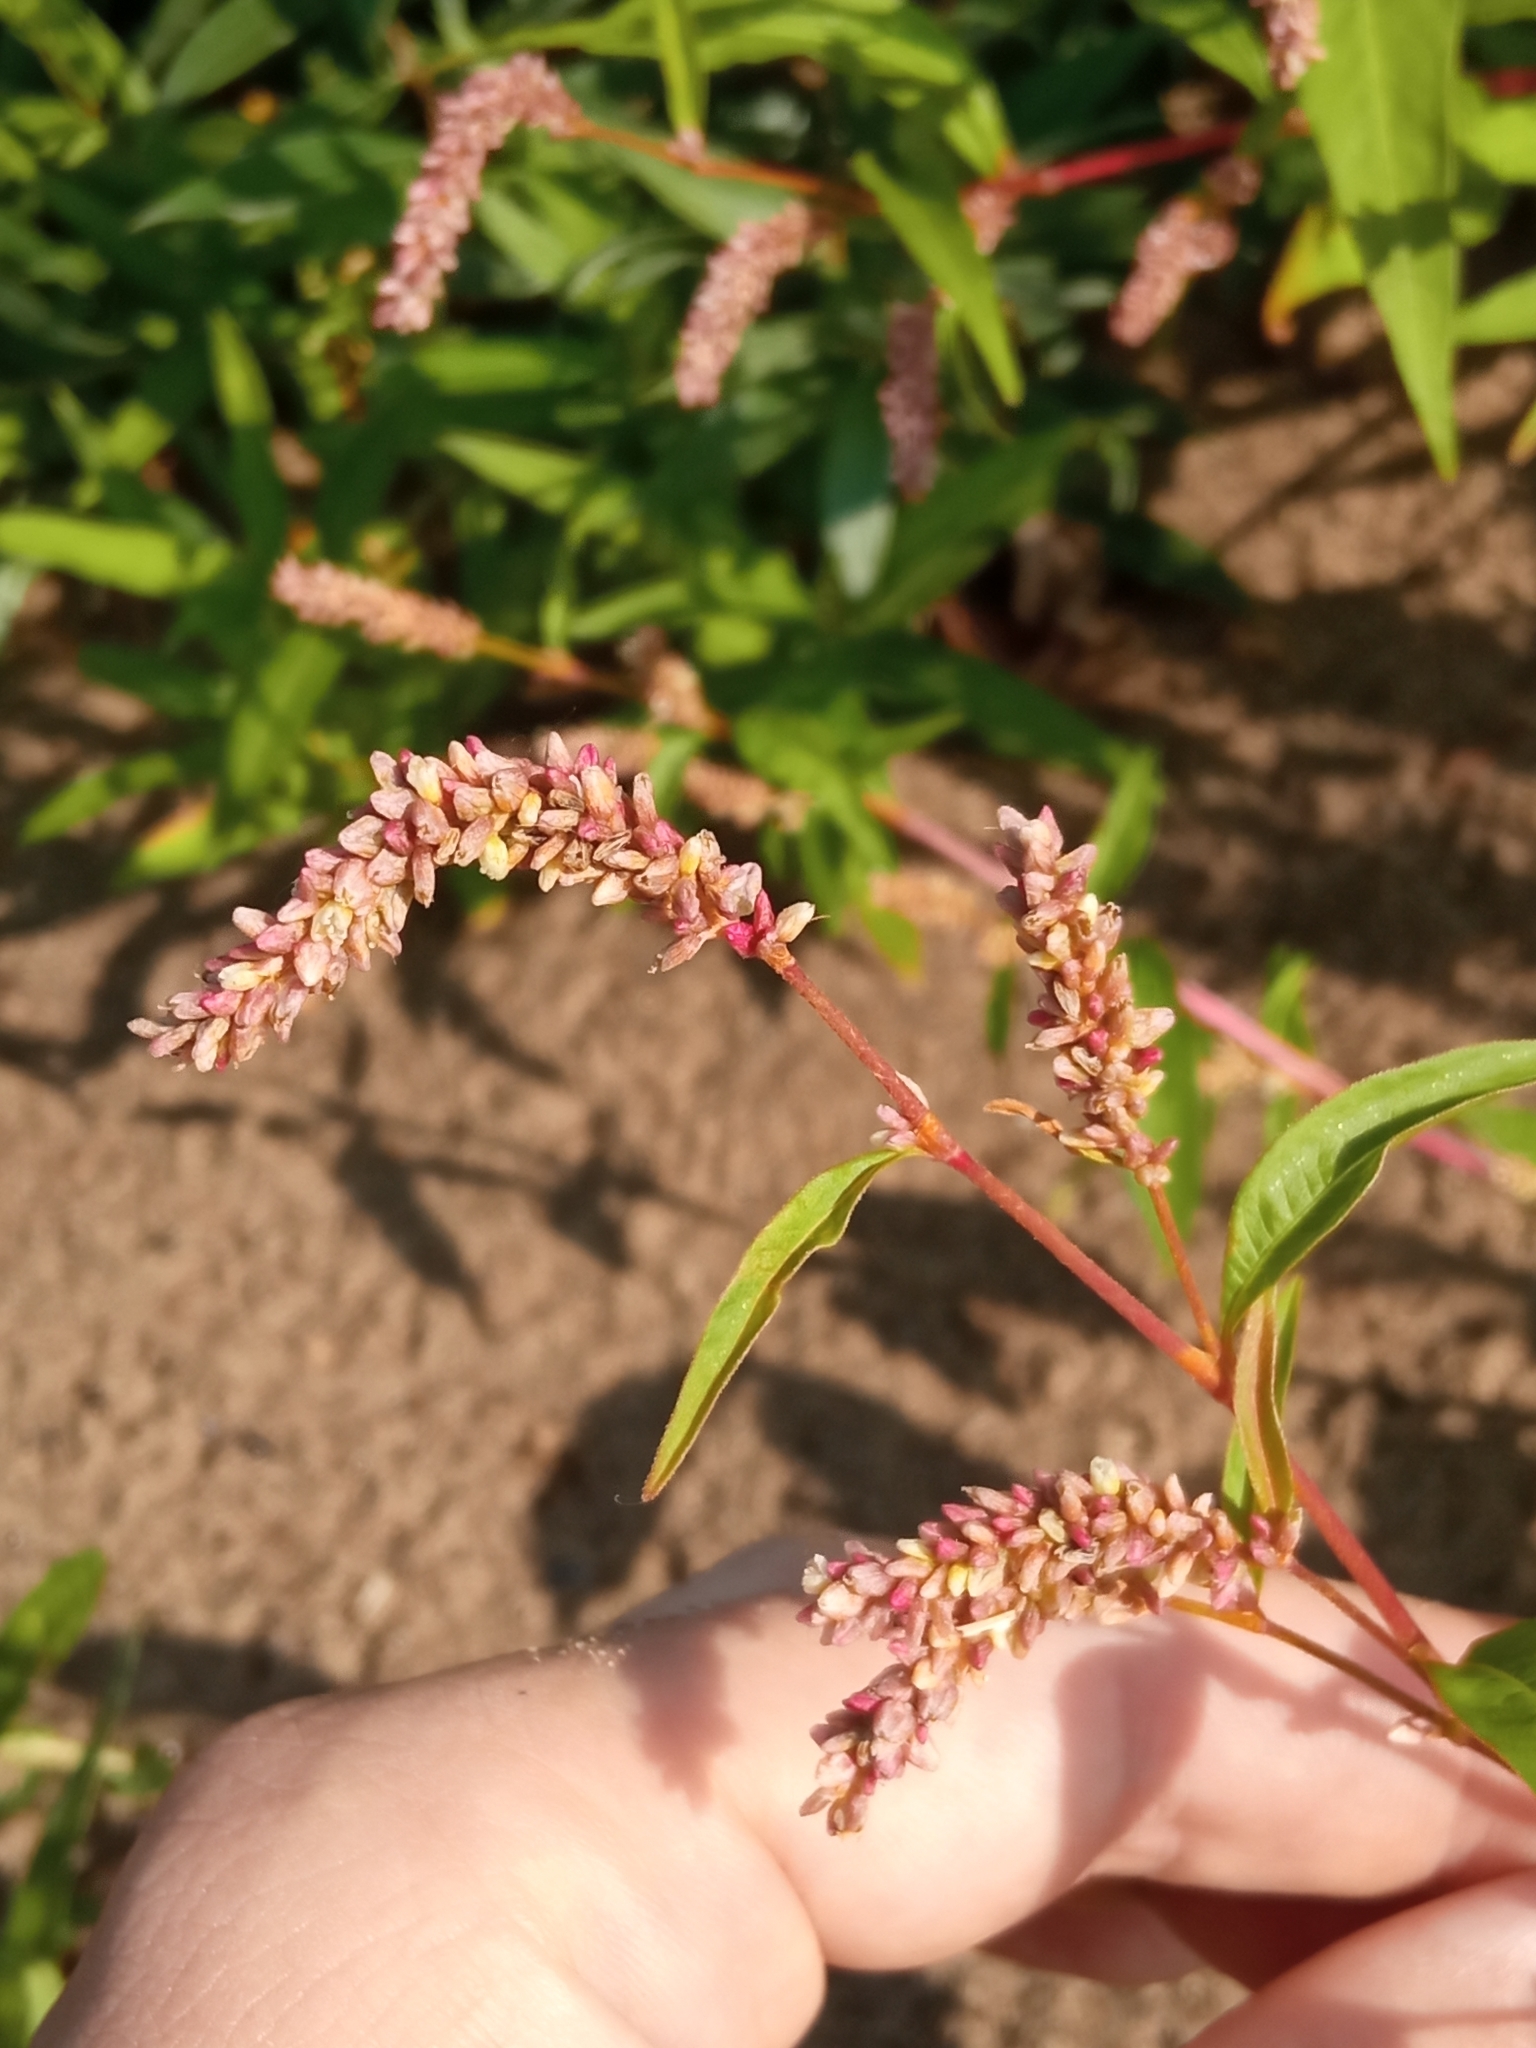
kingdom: Plantae
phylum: Tracheophyta
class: Magnoliopsida
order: Caryophyllales
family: Polygonaceae
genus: Persicaria
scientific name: Persicaria lapathifolia
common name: Curlytop knotweed
